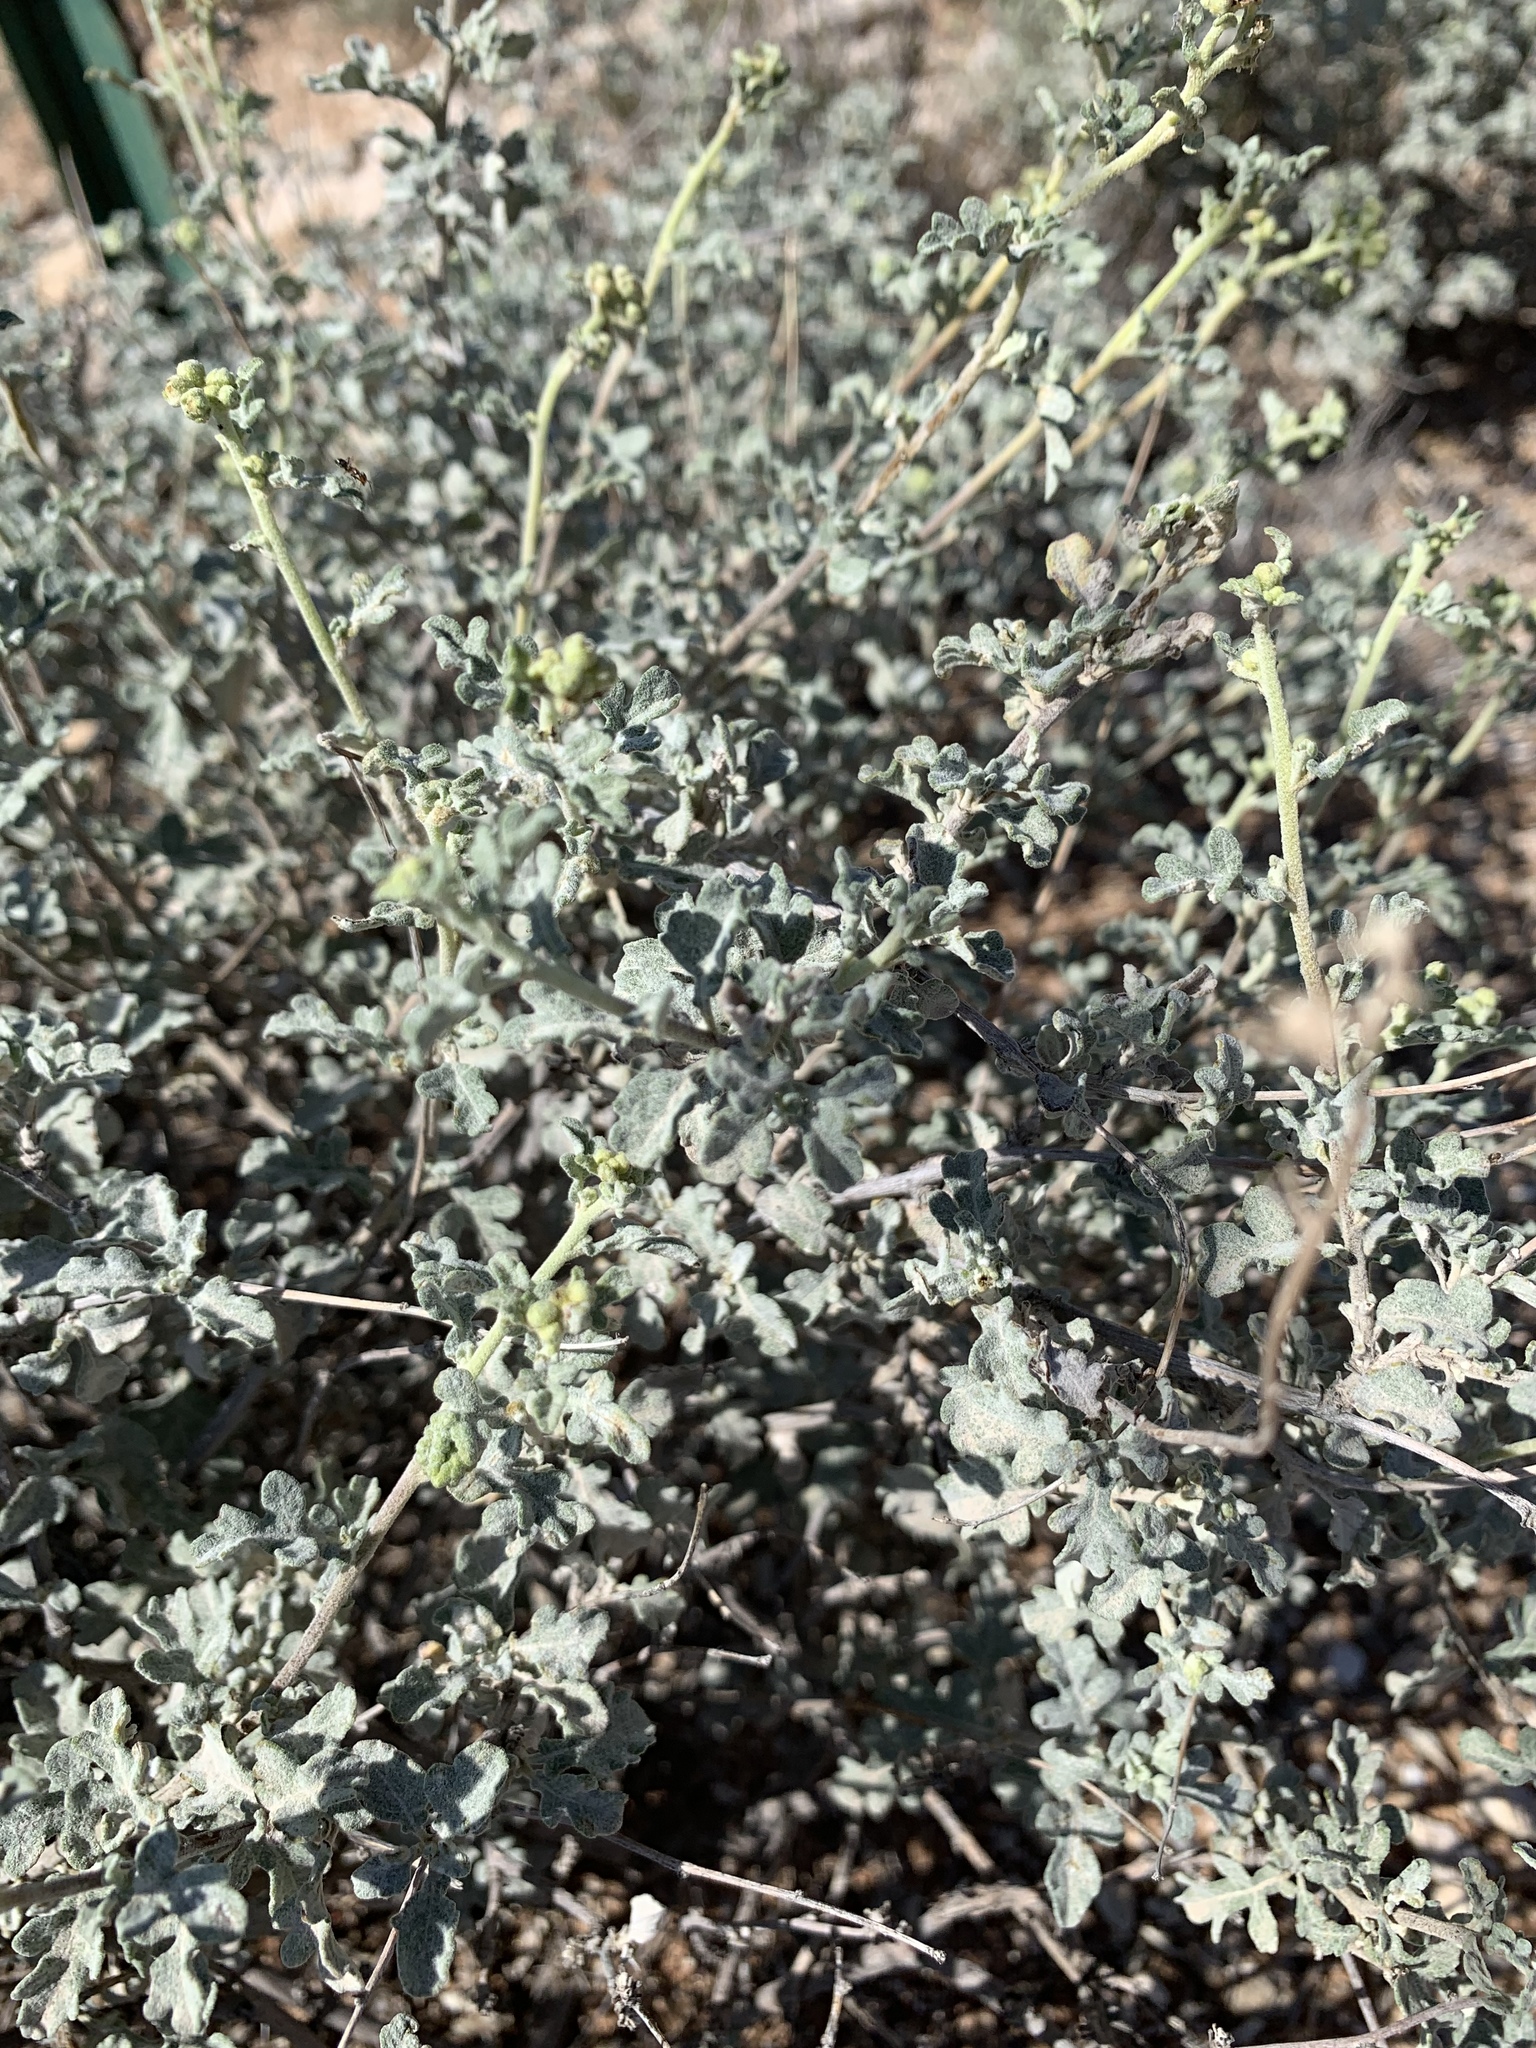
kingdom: Plantae
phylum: Tracheophyta
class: Magnoliopsida
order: Asterales
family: Asteraceae
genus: Parthenium
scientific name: Parthenium incanum
